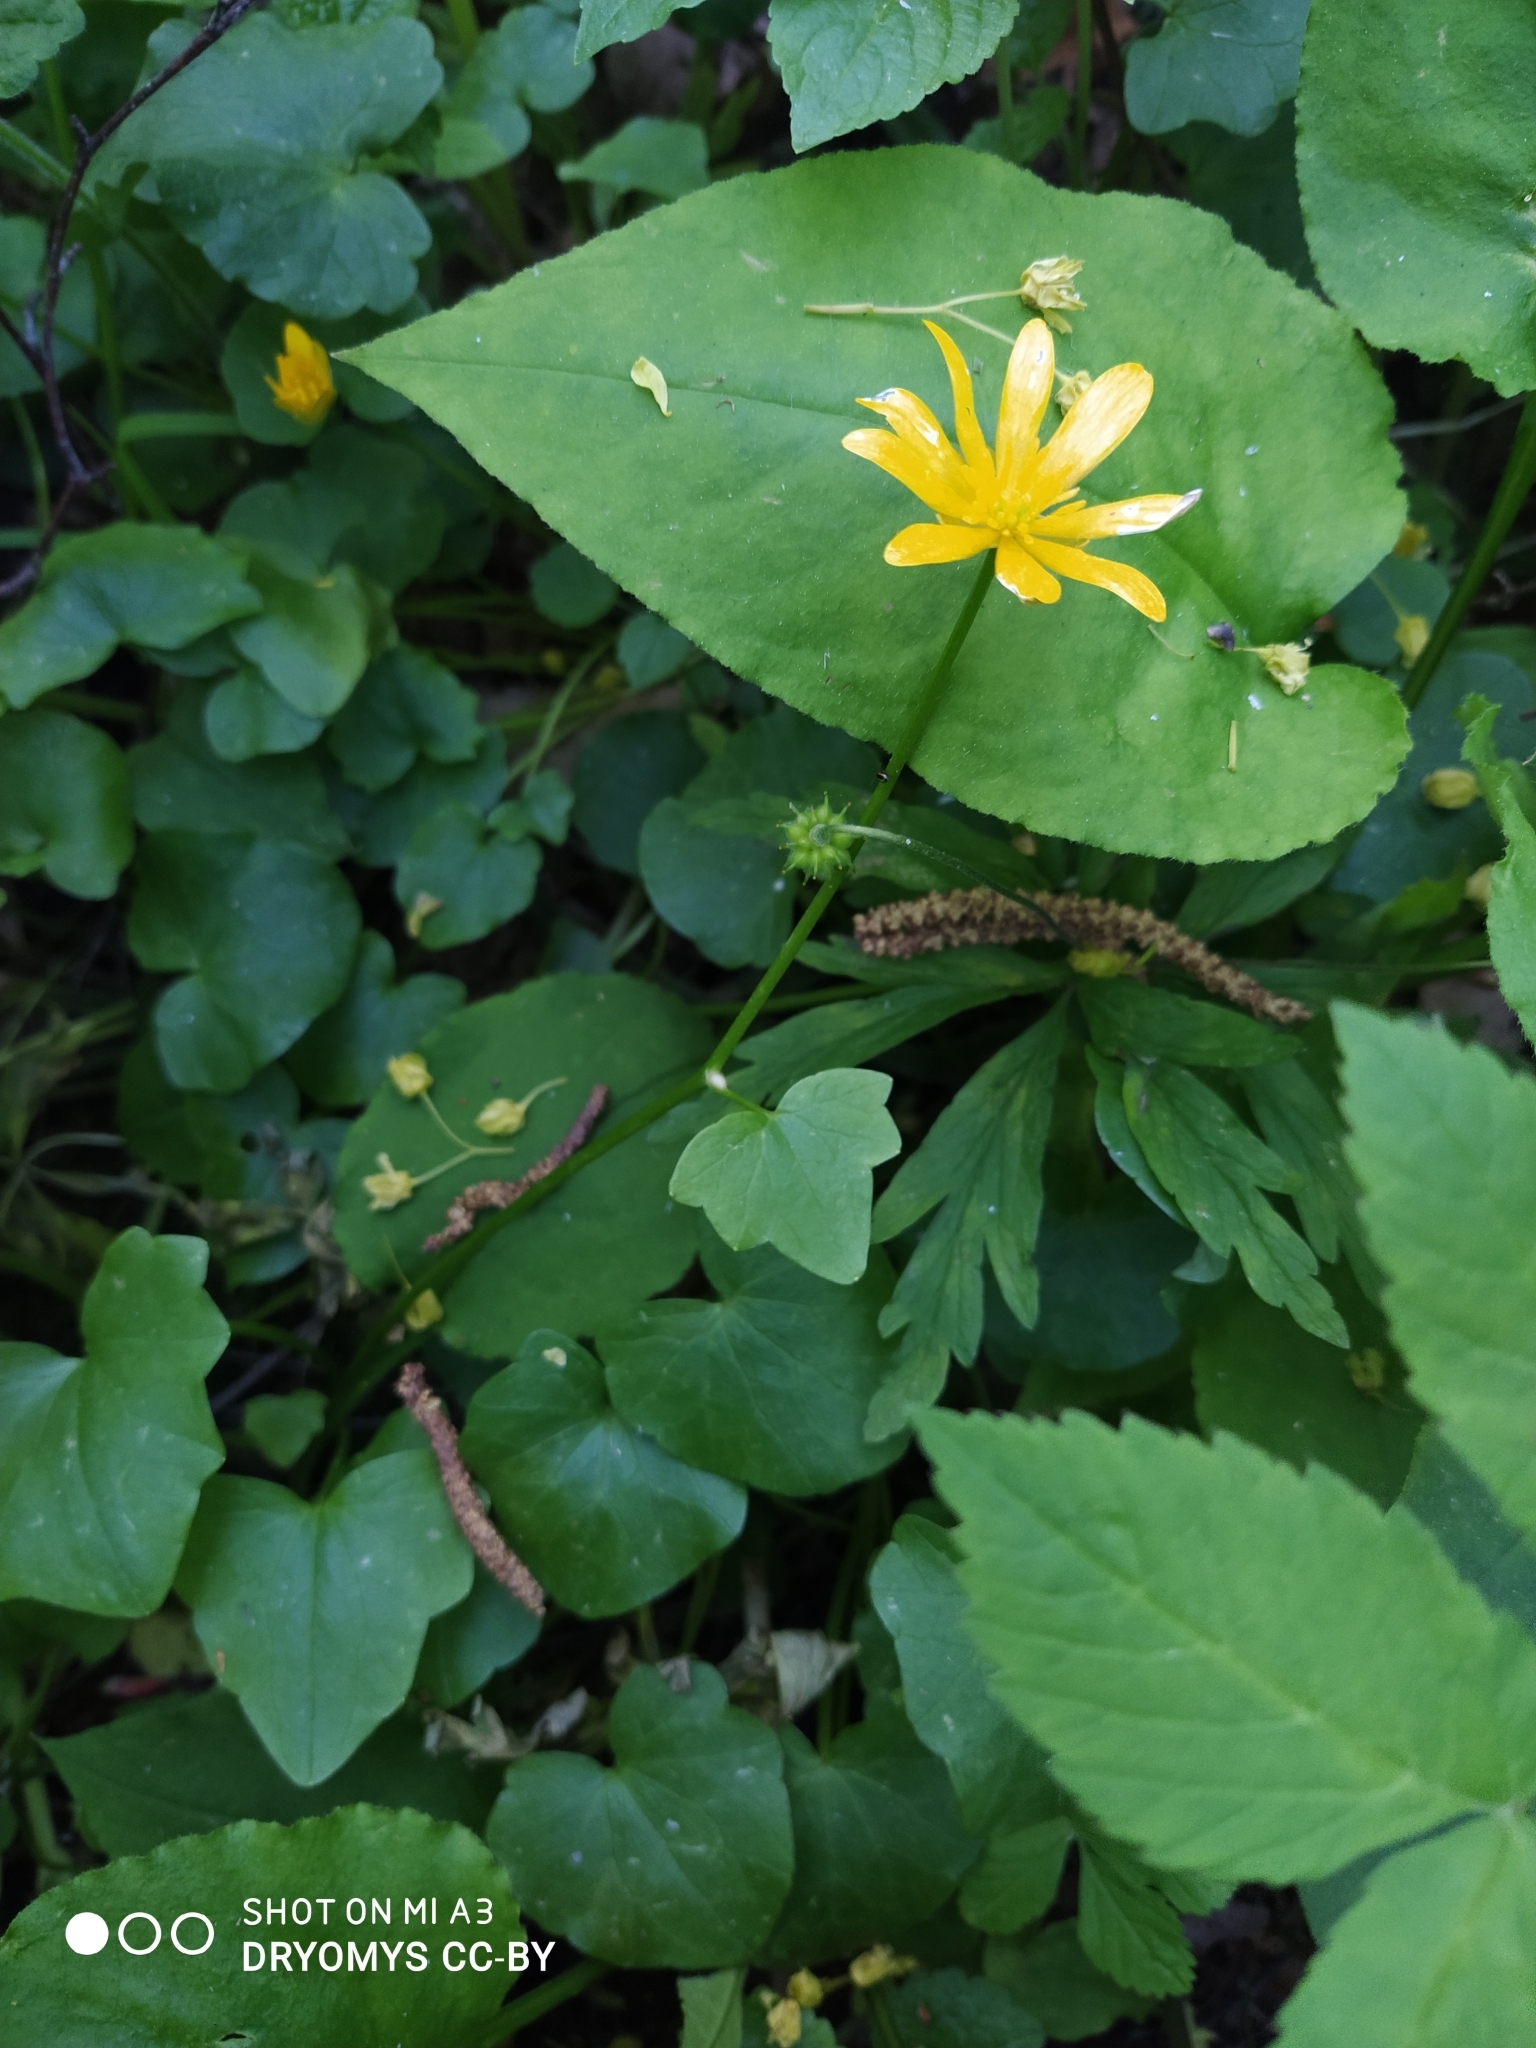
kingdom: Plantae
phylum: Tracheophyta
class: Magnoliopsida
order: Ranunculales
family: Ranunculaceae
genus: Ficaria
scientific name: Ficaria verna
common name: Lesser celandine
